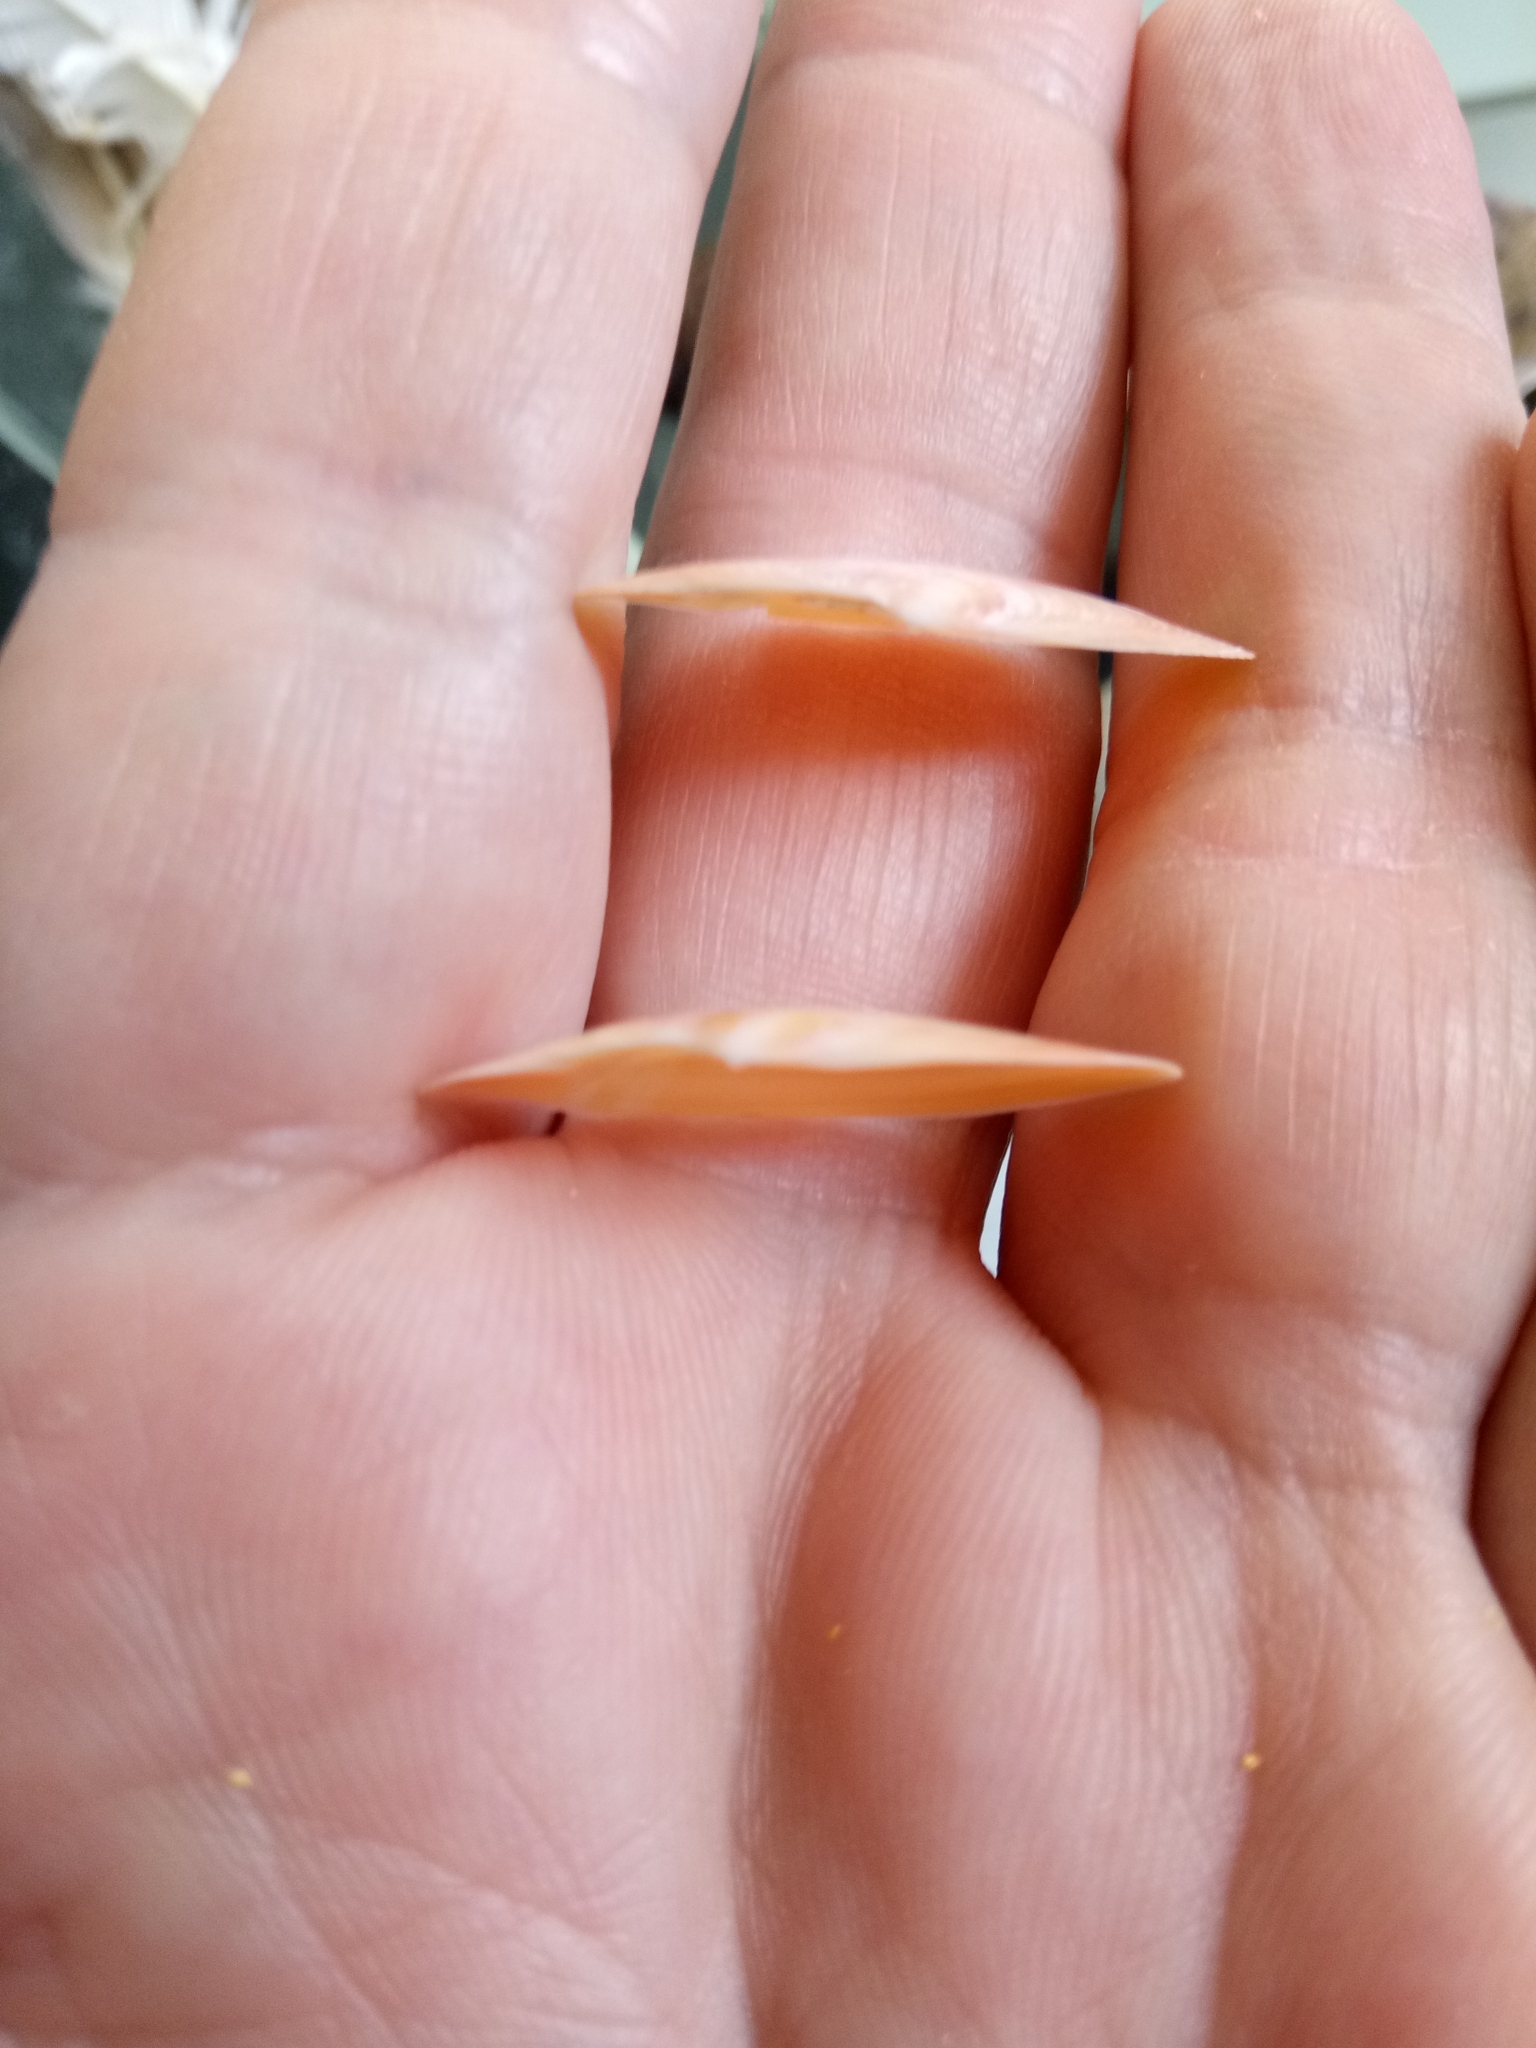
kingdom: Animalia
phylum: Mollusca
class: Bivalvia
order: Cardiida
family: Tellinidae
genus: Bosemprella
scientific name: Bosemprella incarnata
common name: Red tellin
